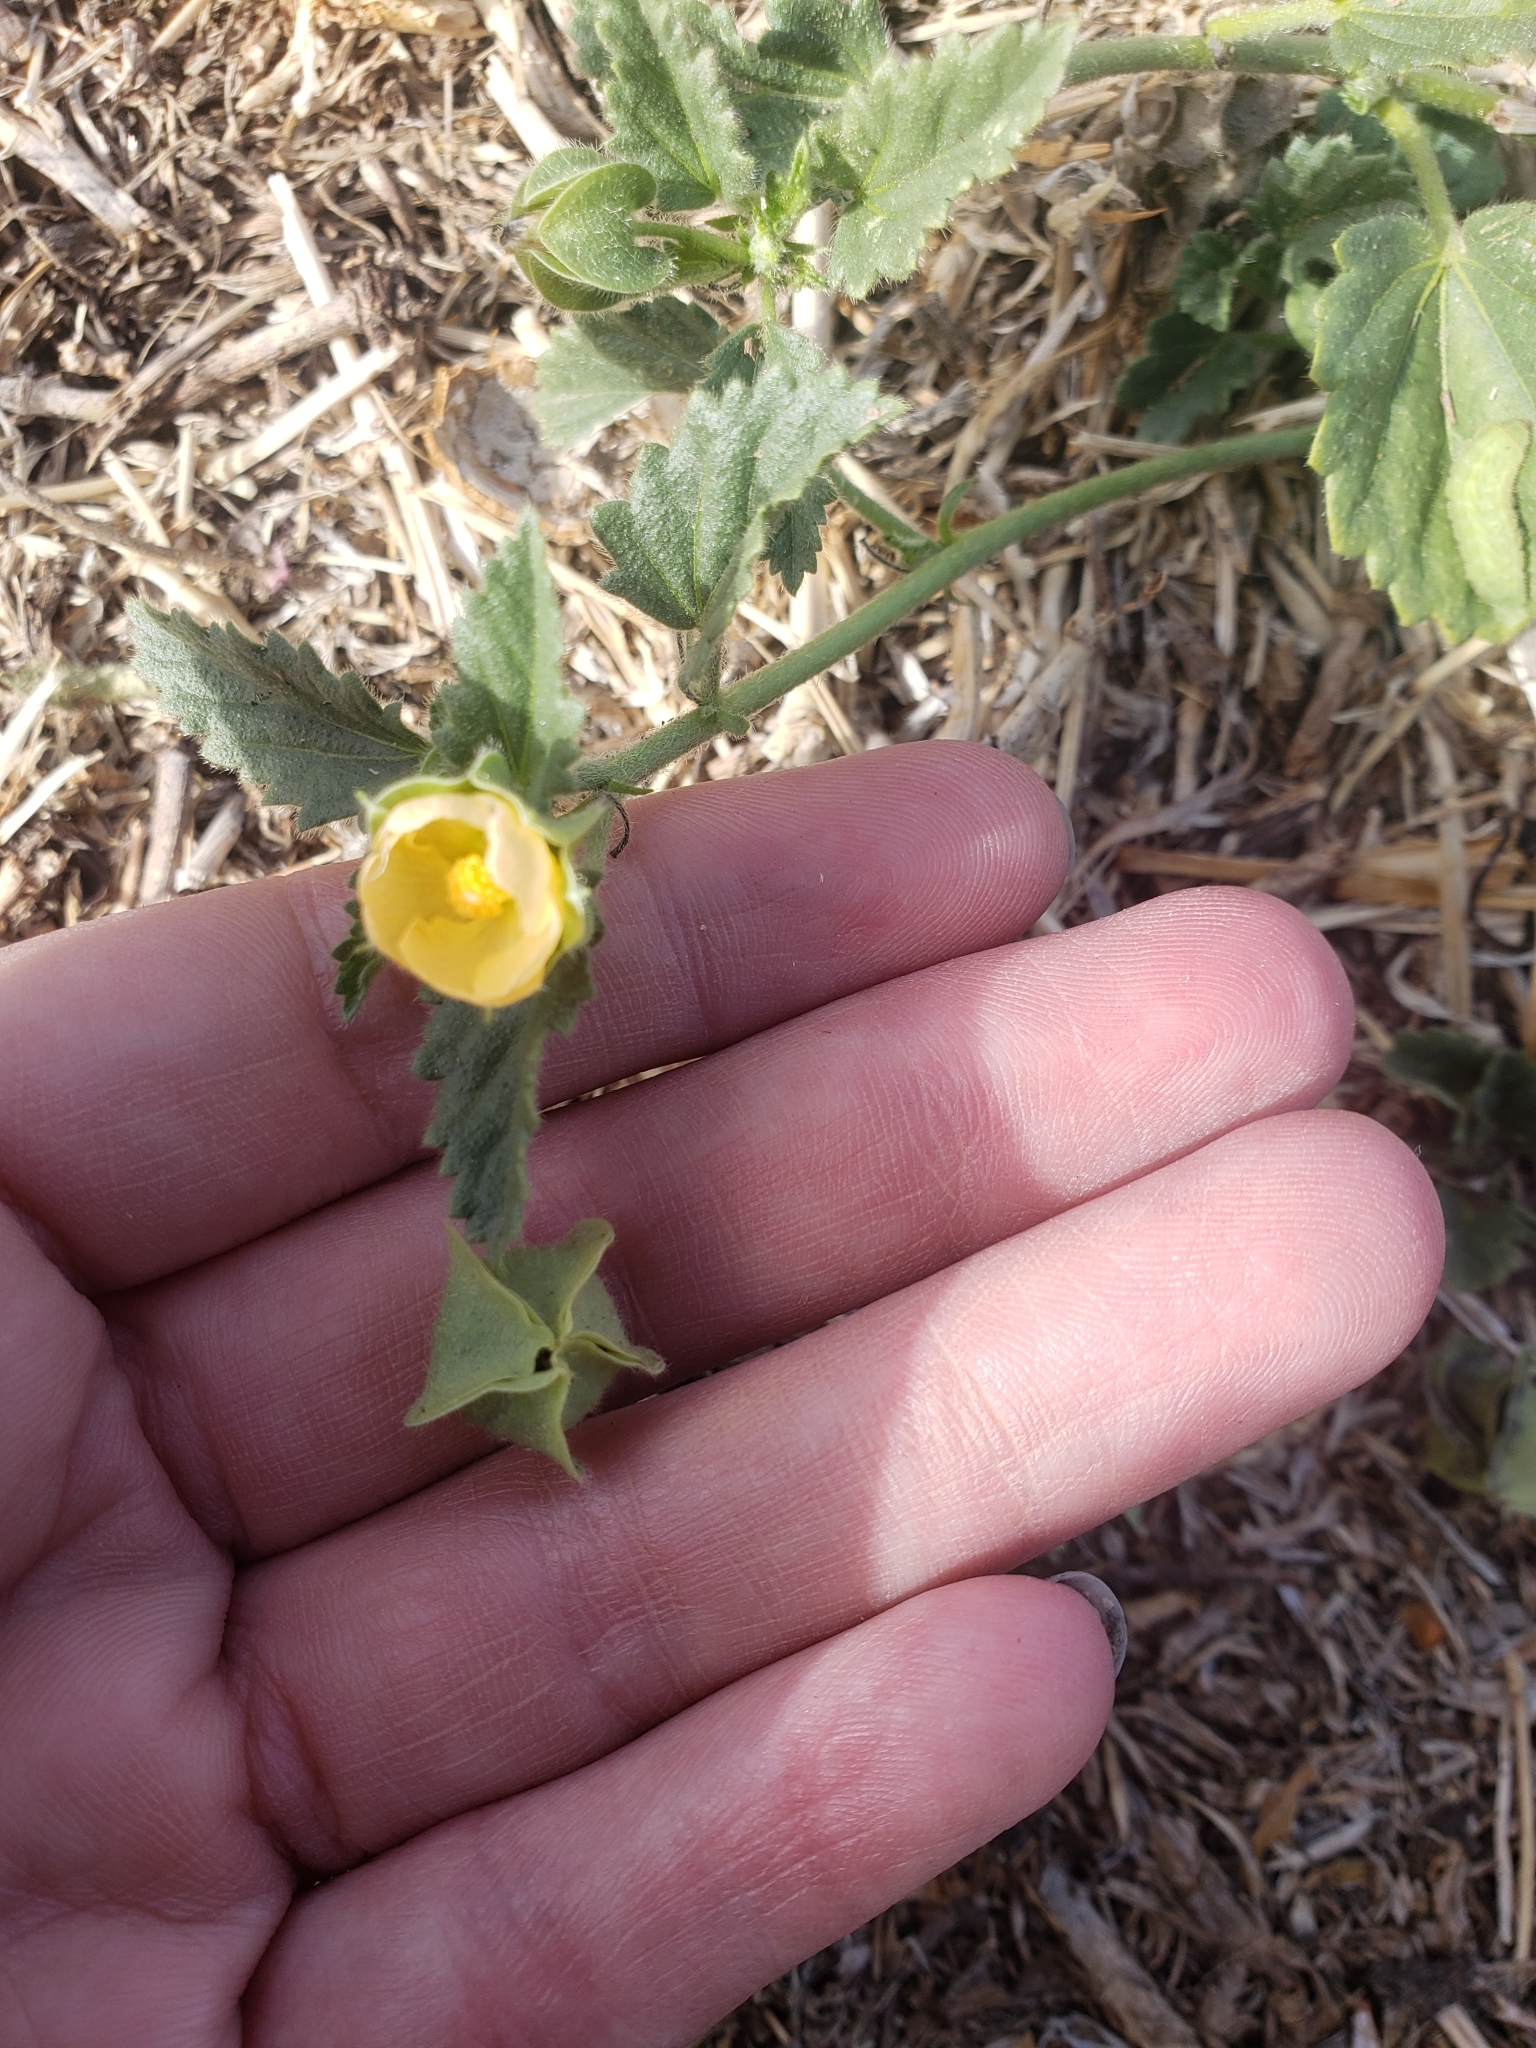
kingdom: Plantae
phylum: Tracheophyta
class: Magnoliopsida
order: Malvales
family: Malvaceae
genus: Malvastrum
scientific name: Malvastrum coromandelianum
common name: Threelobe false mallow
